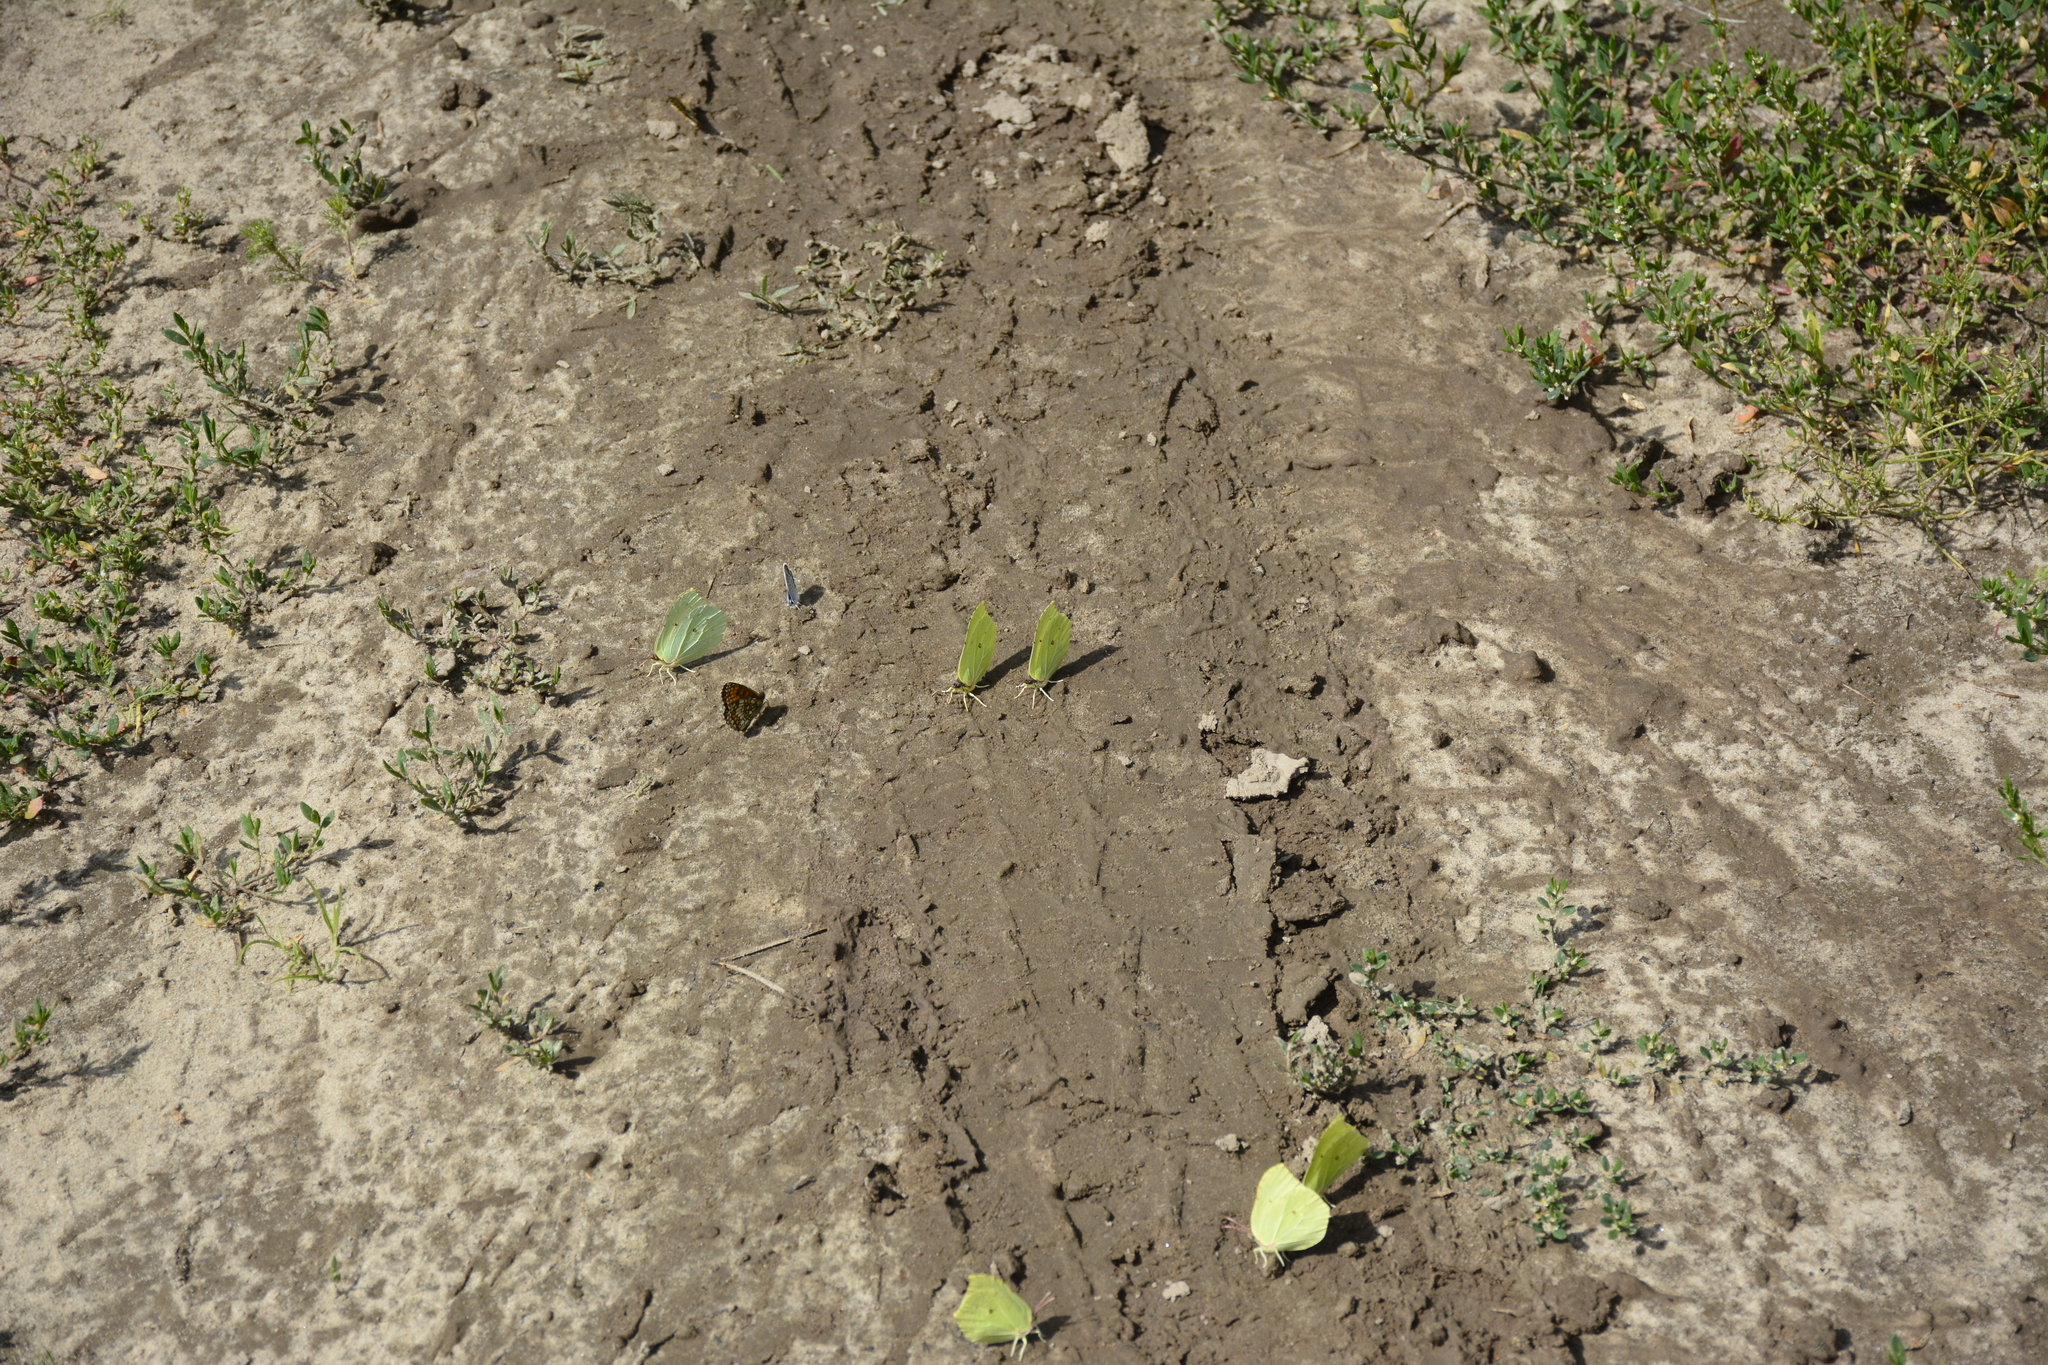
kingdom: Animalia
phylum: Arthropoda
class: Insecta
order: Lepidoptera
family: Pieridae
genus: Gonepteryx
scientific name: Gonepteryx rhamni
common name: Brimstone
